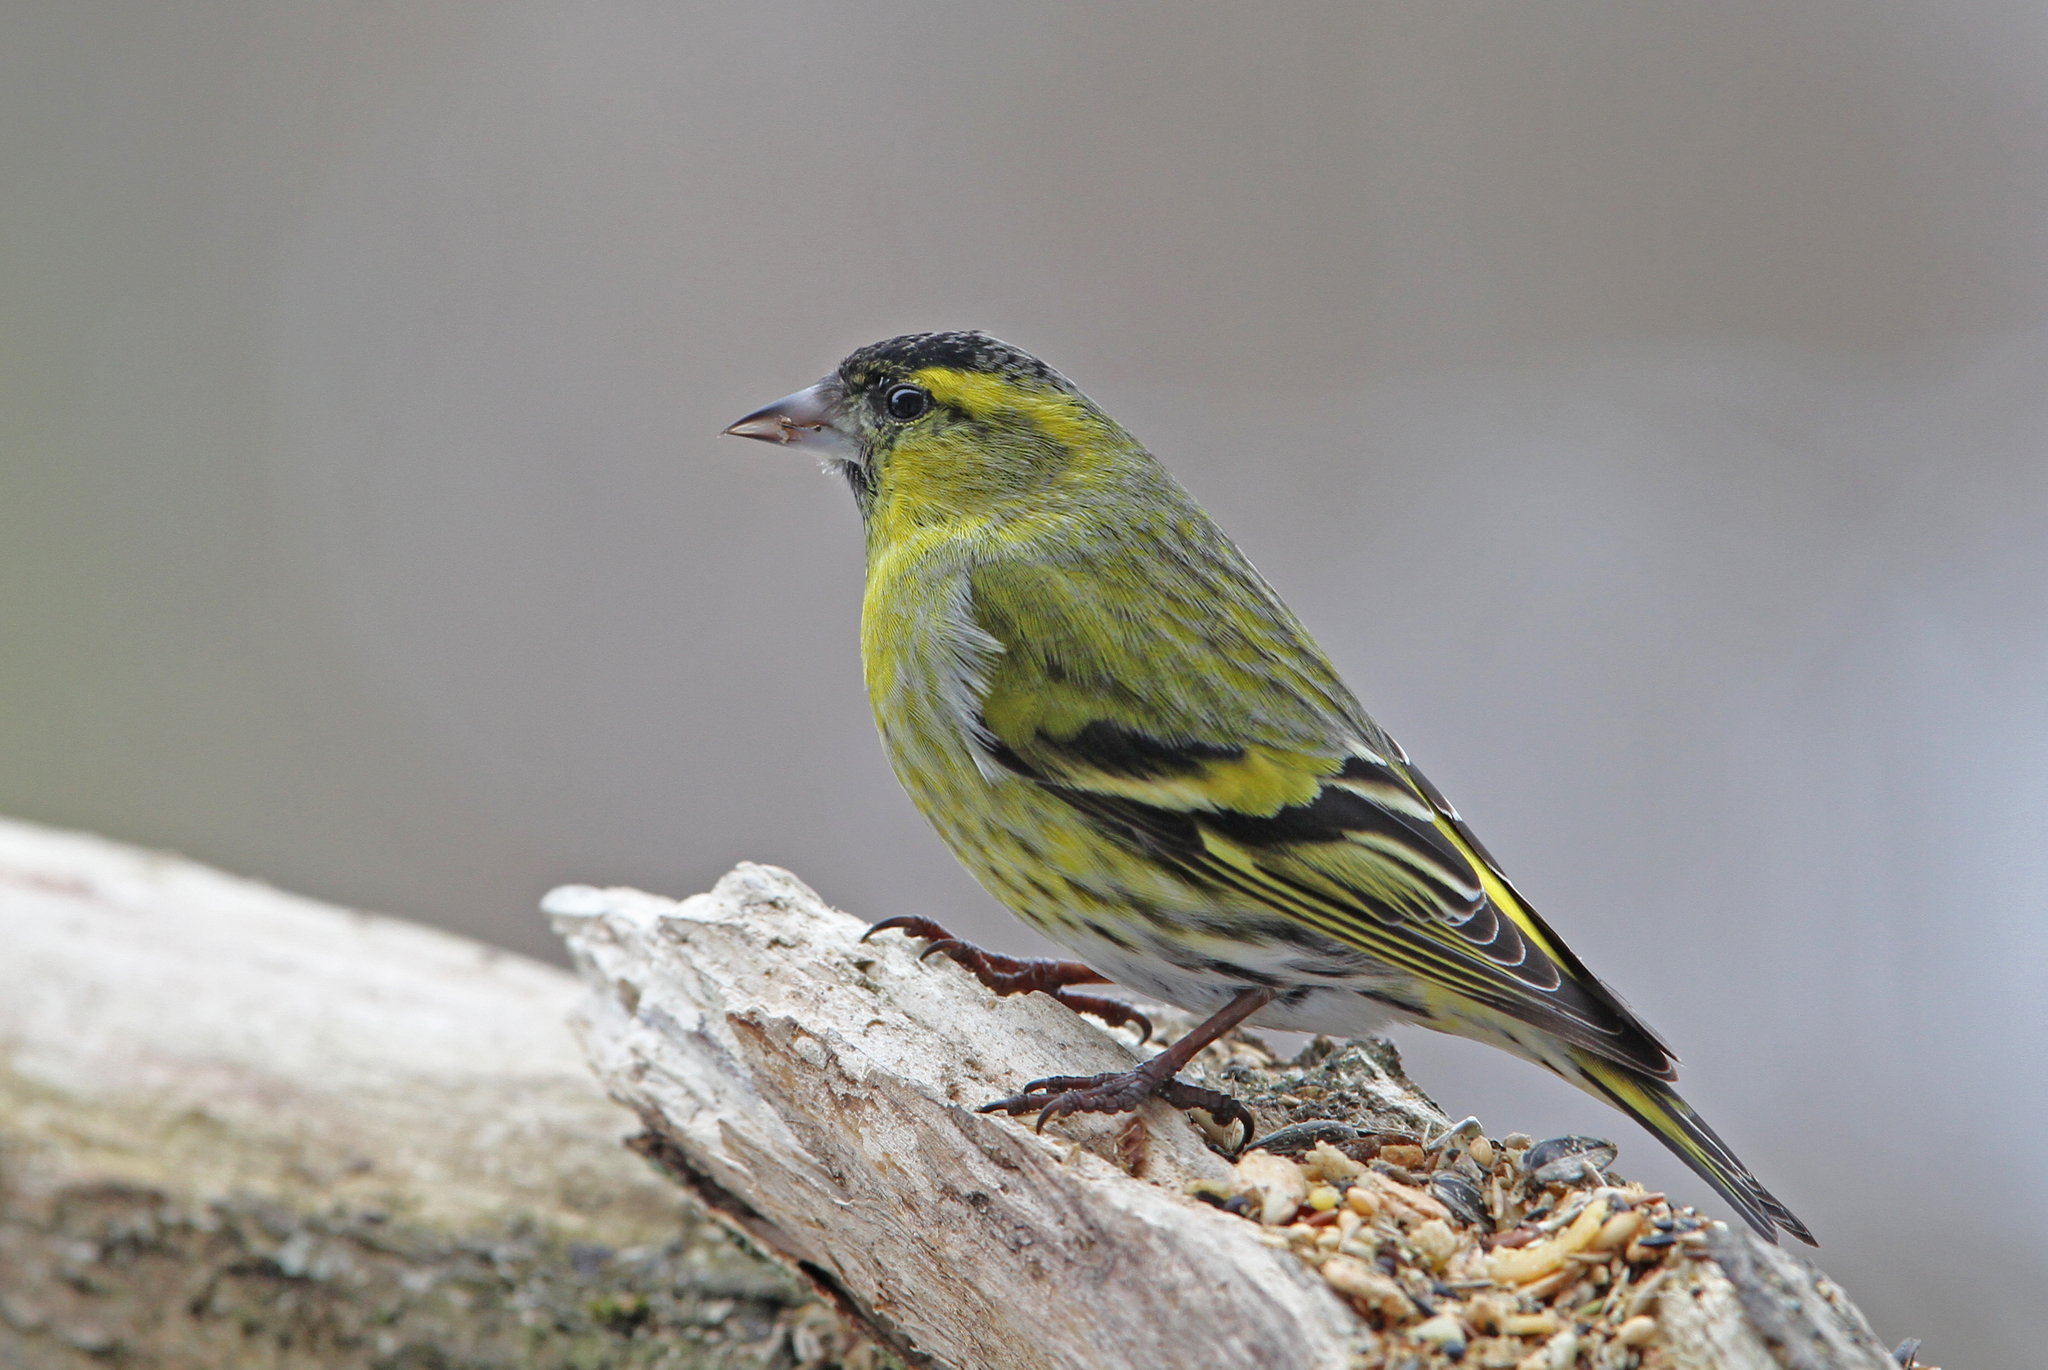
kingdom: Animalia
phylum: Chordata
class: Aves
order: Passeriformes
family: Fringillidae
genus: Spinus
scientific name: Spinus spinus
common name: Eurasian siskin
